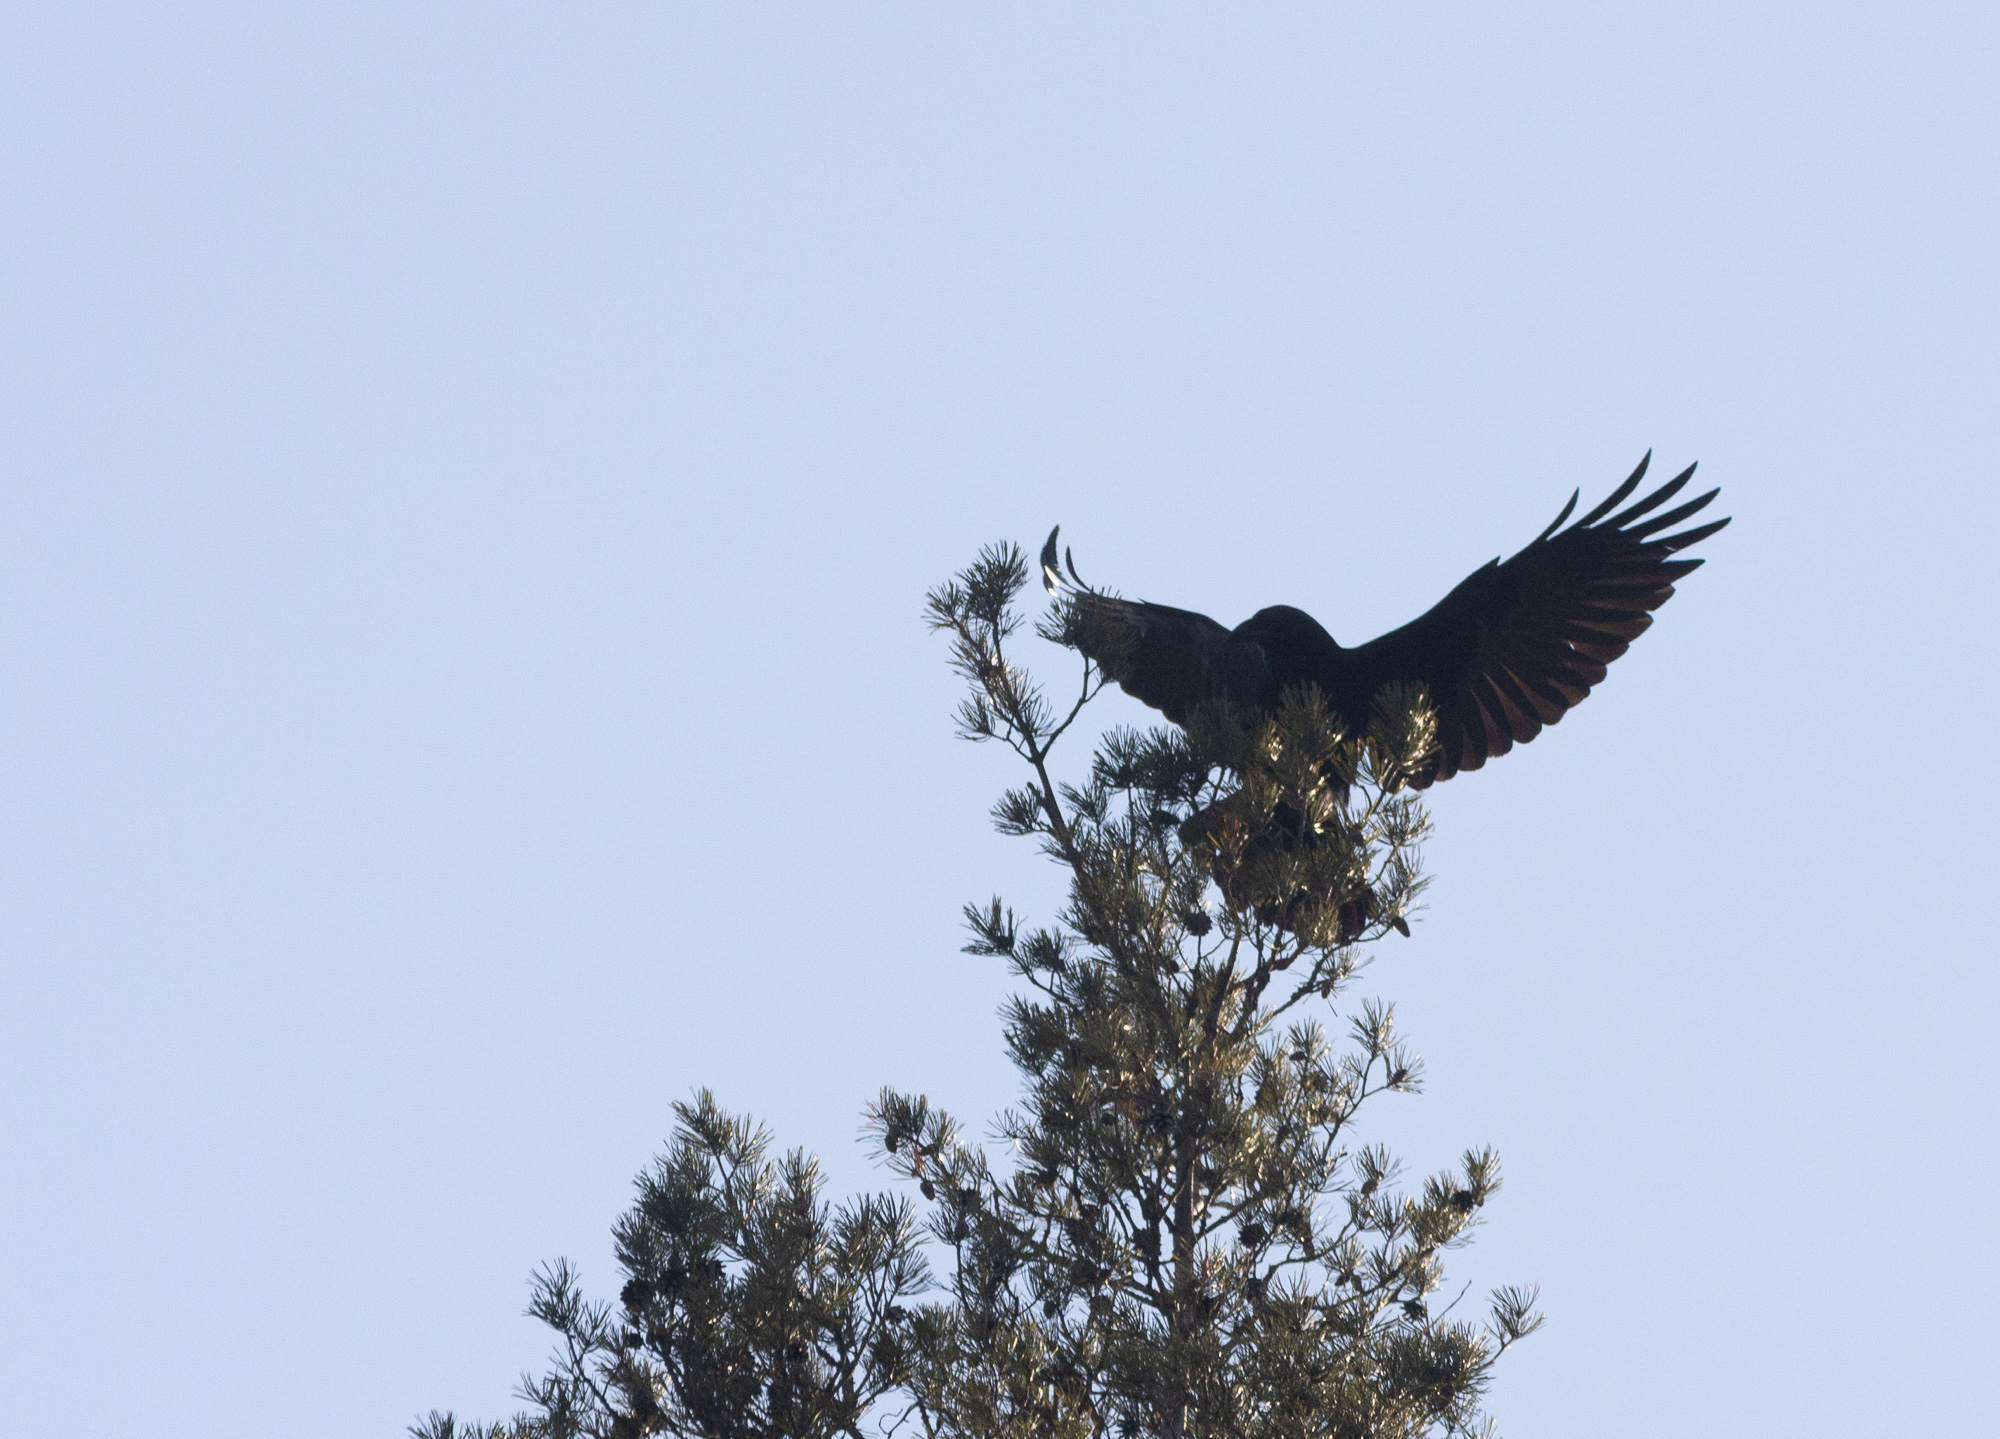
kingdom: Animalia
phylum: Chordata
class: Aves
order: Passeriformes
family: Corvidae
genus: Corvus
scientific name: Corvus corax
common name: Common raven
